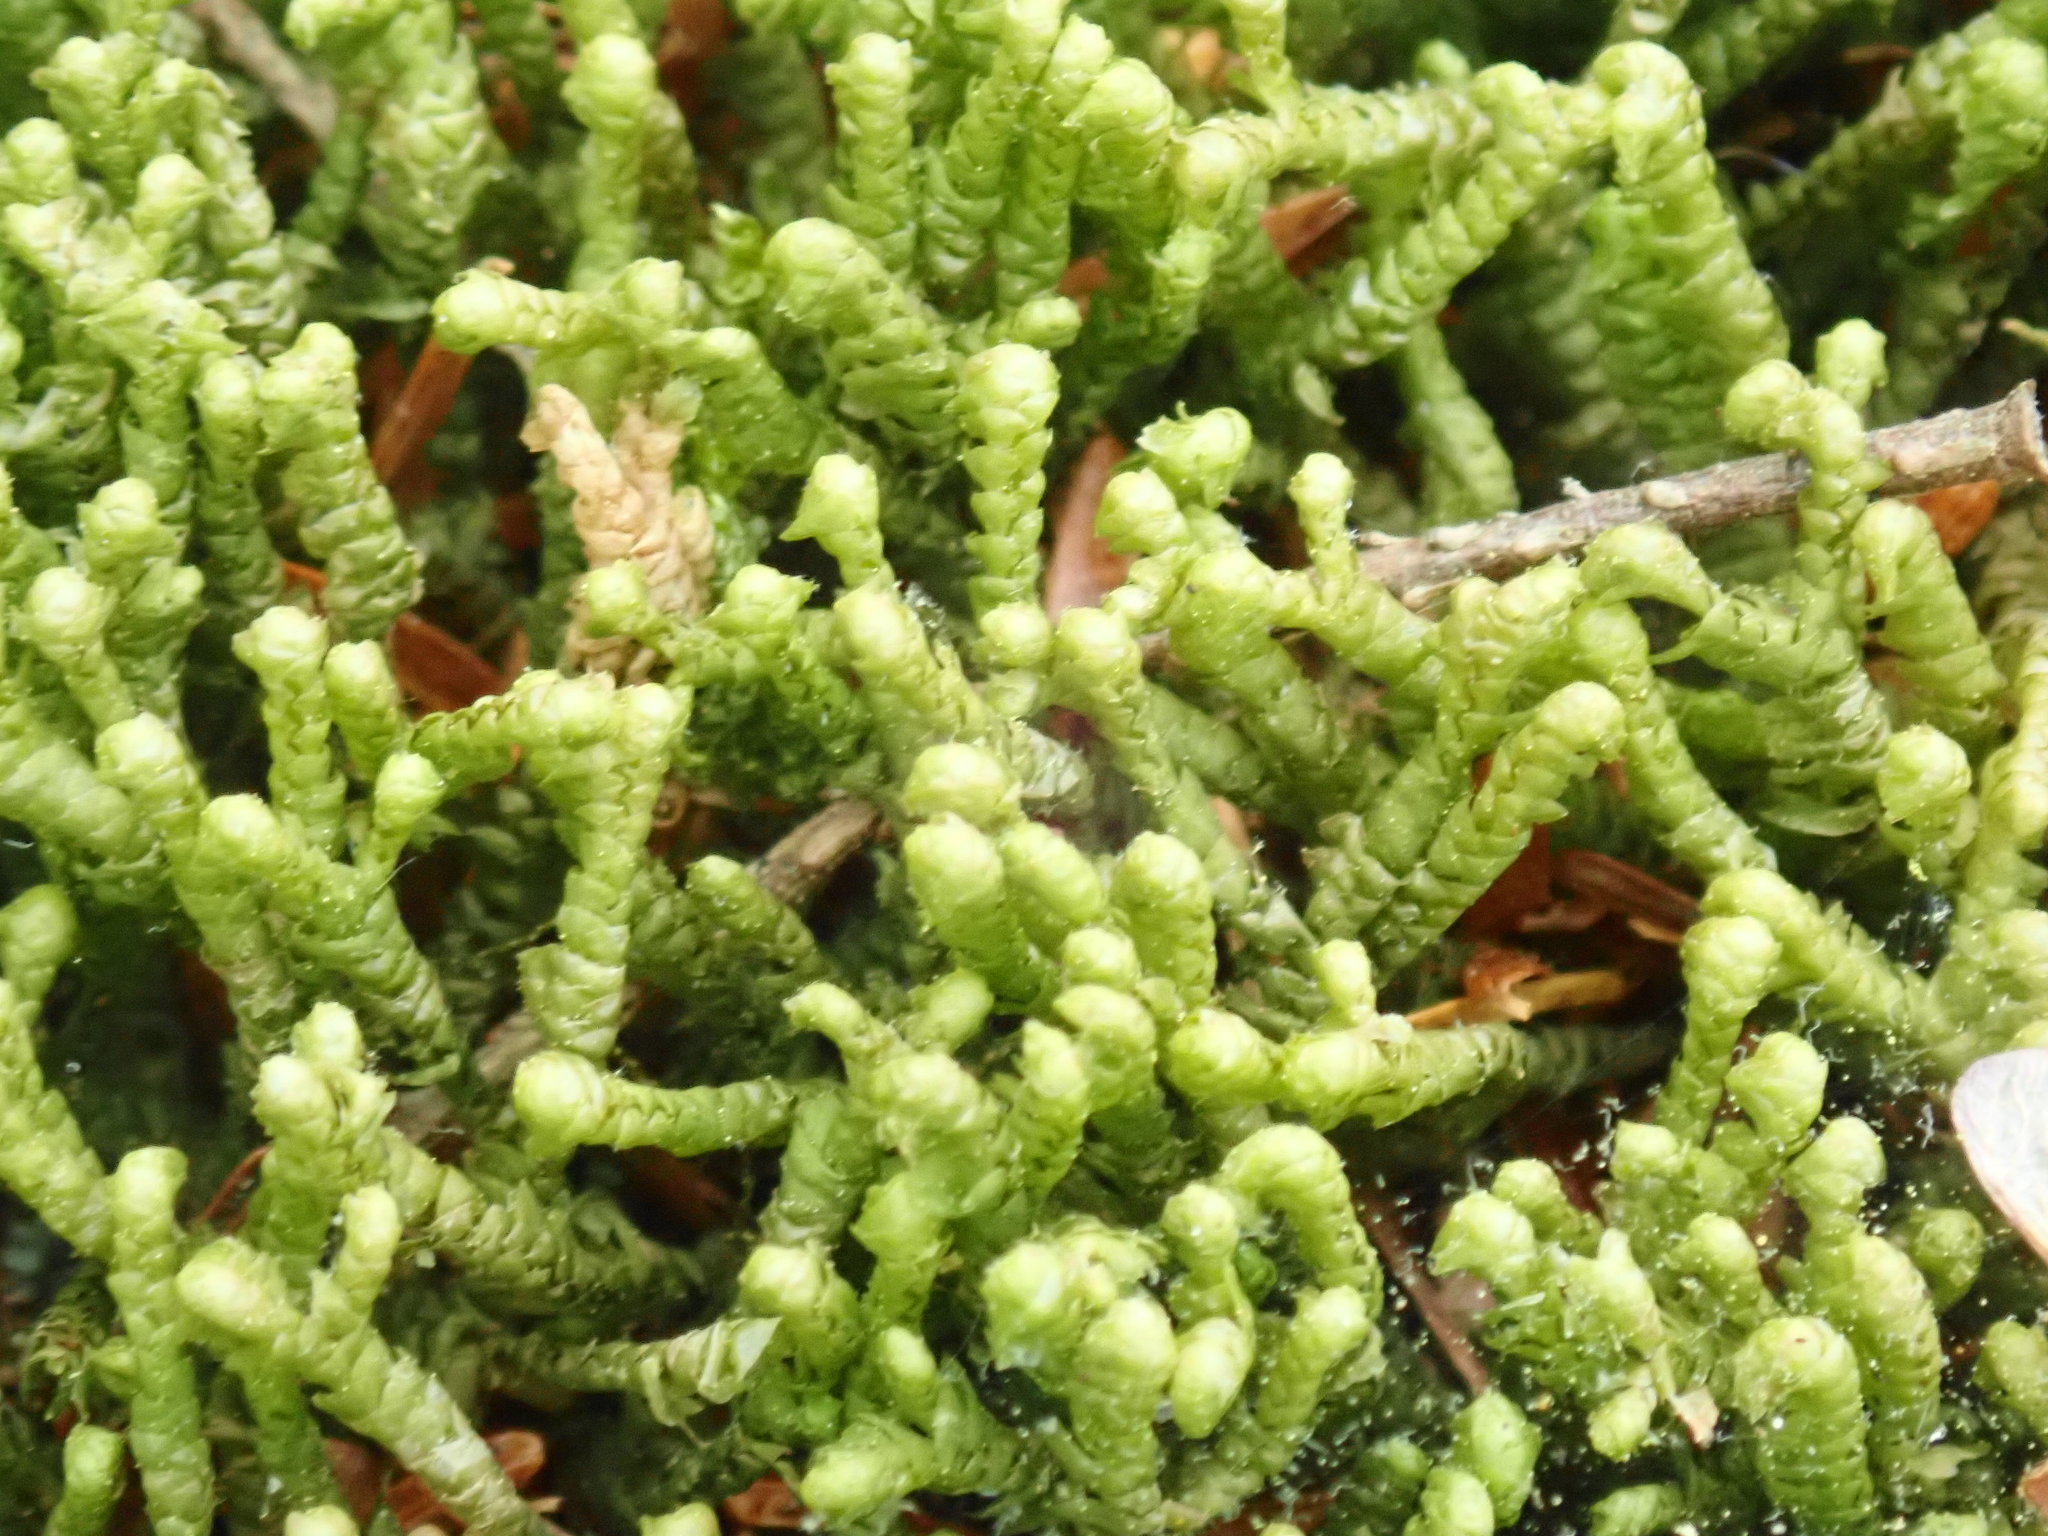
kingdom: Plantae
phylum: Marchantiophyta
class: Jungermanniopsida
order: Jungermanniales
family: Lepidoziaceae
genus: Bazzania
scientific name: Bazzania trilobata
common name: Three-lobed whipwort
